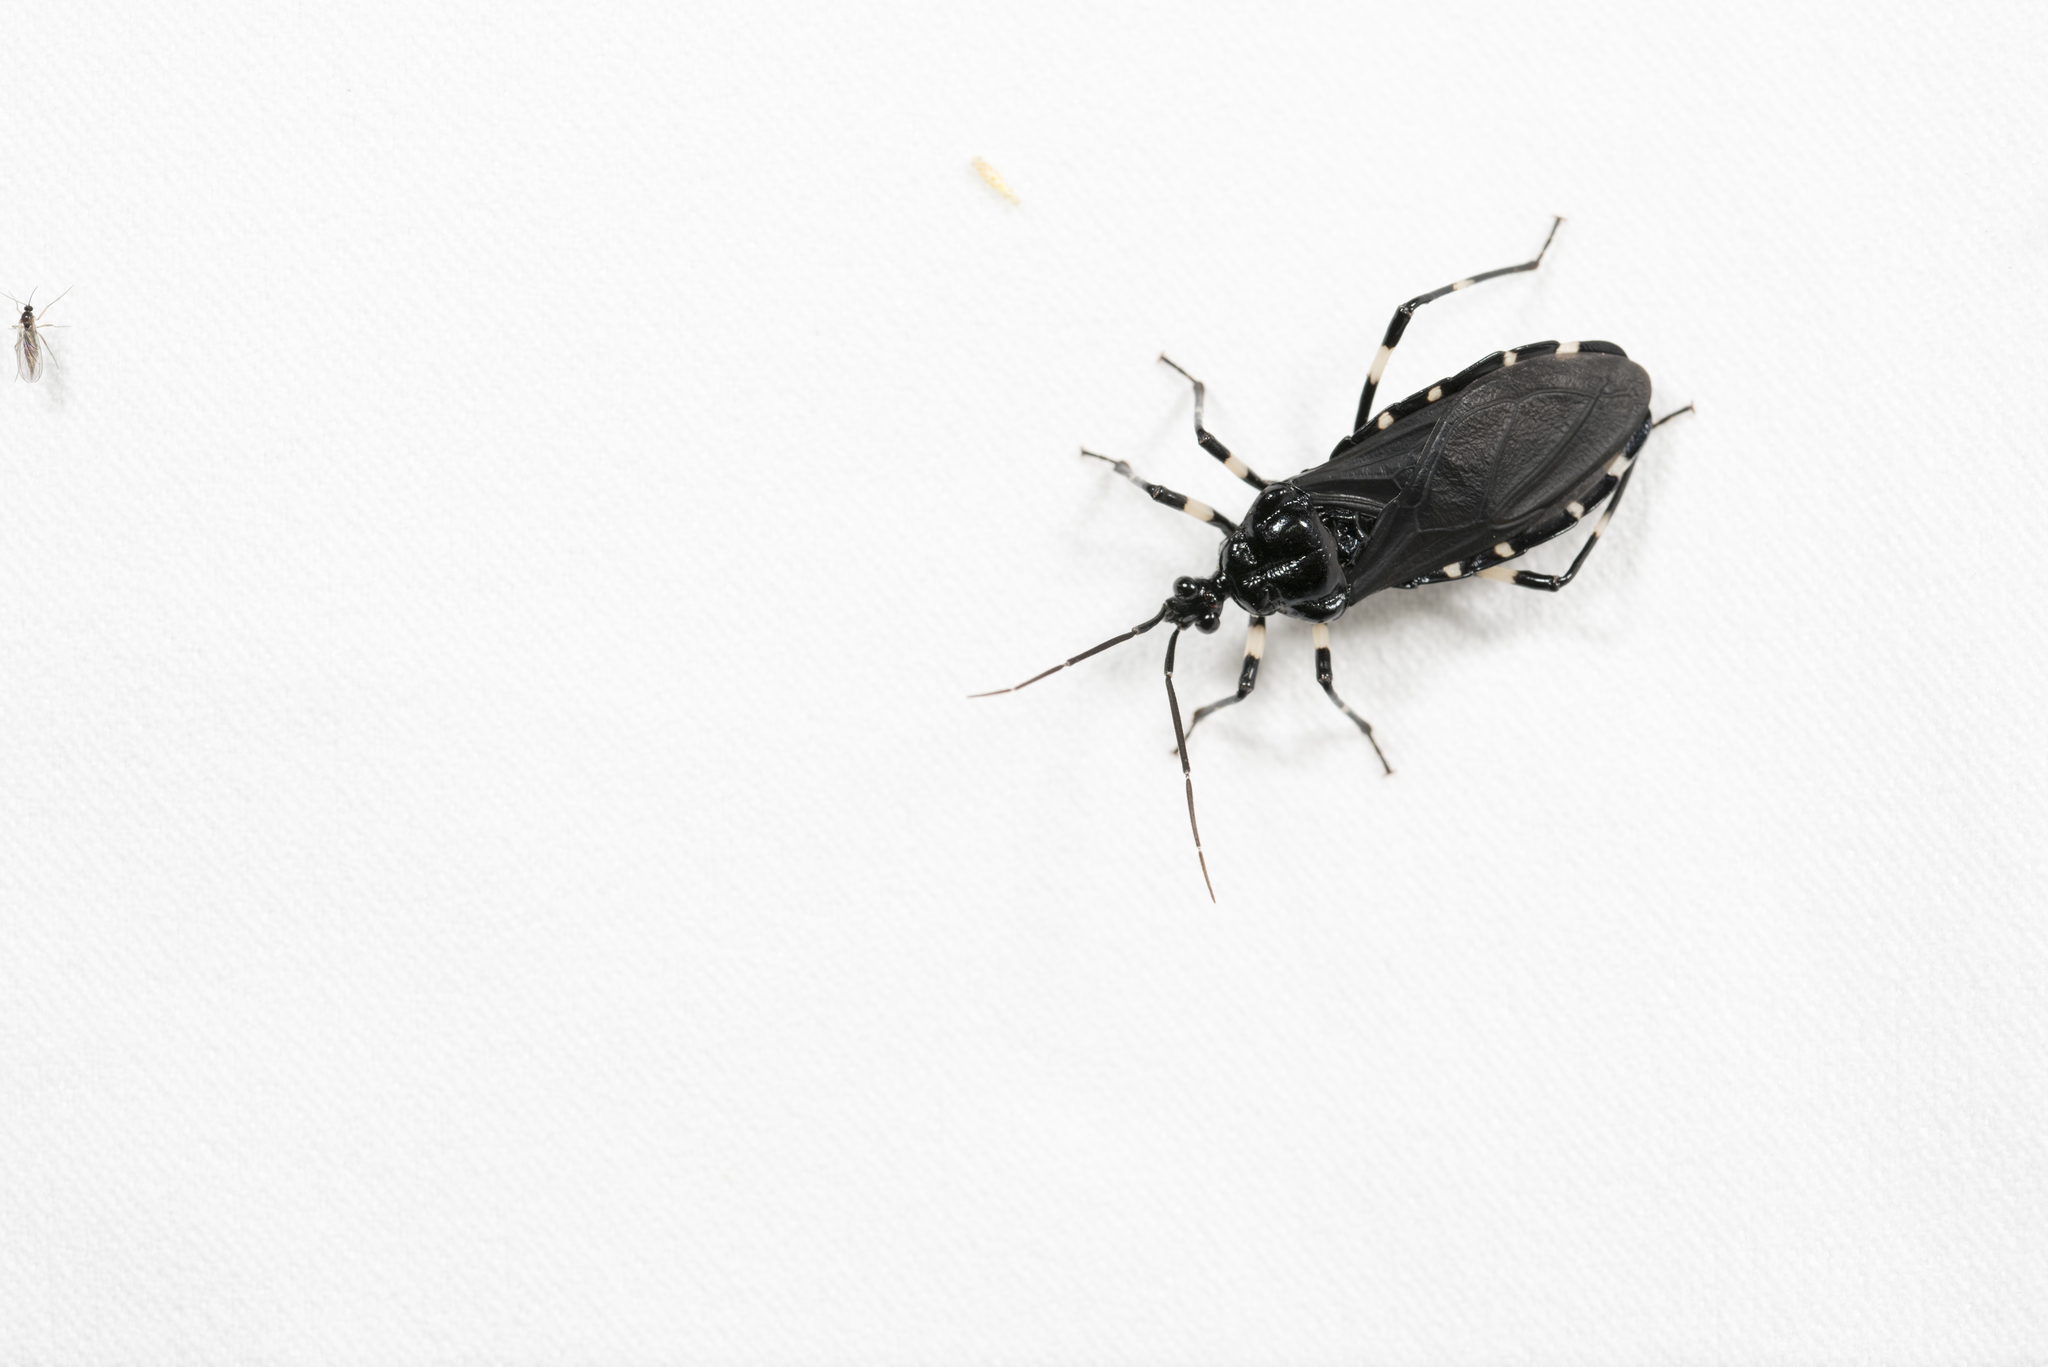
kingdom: Animalia
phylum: Arthropoda
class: Insecta
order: Hemiptera
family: Reduviidae
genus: Neozirta
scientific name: Neozirta eidmanni
